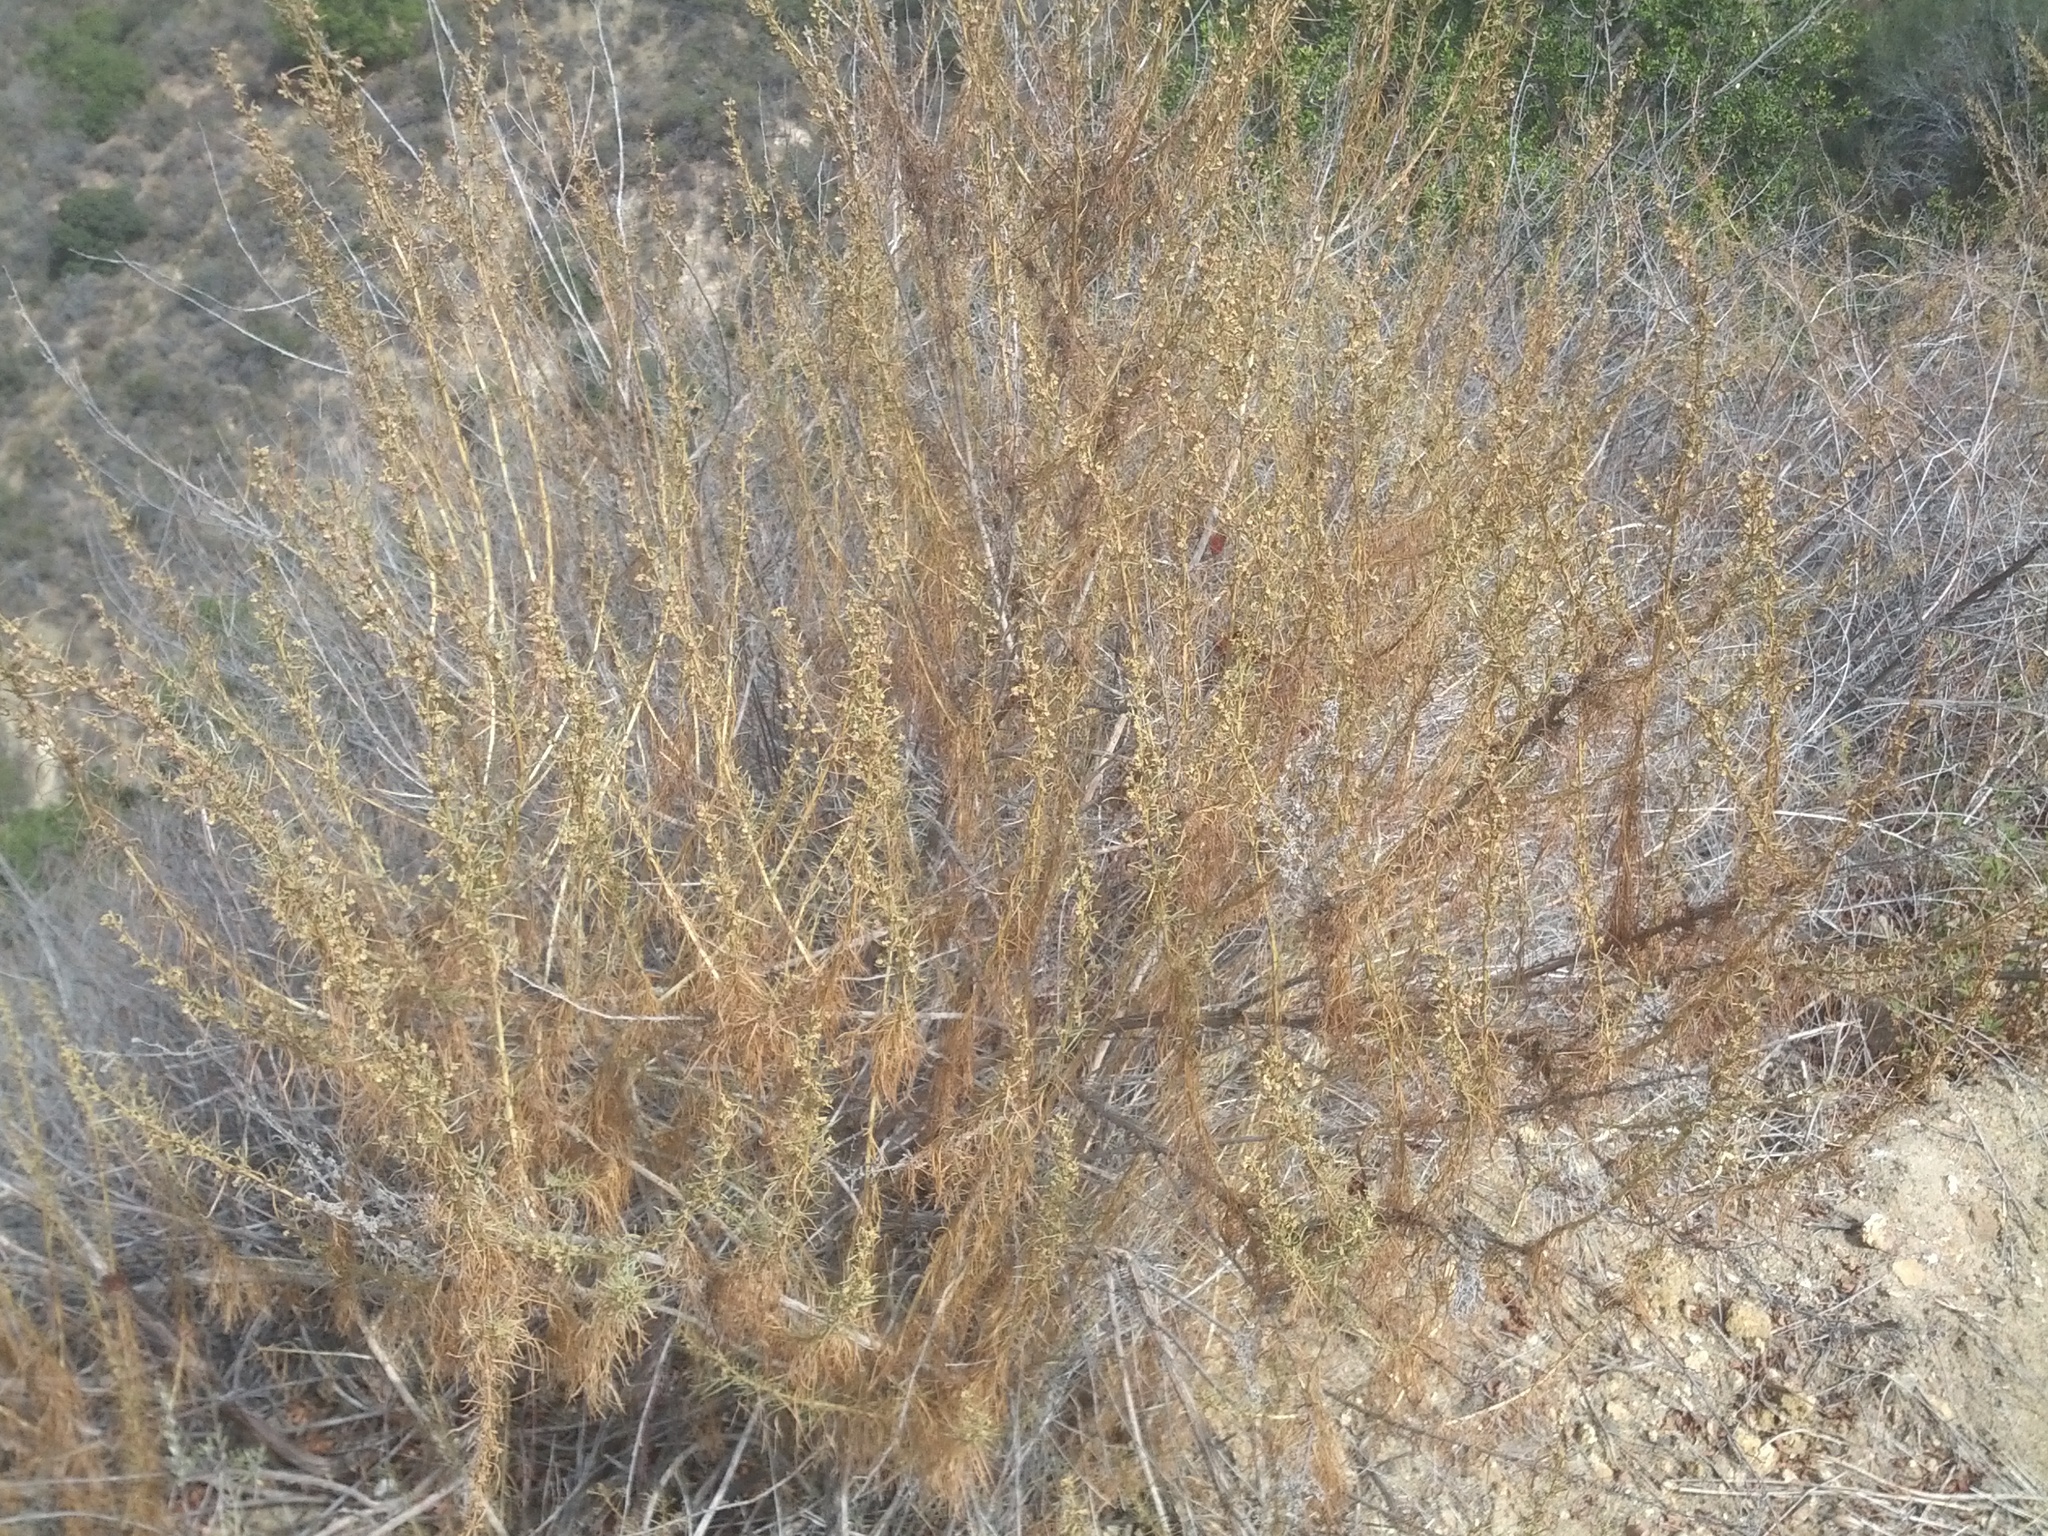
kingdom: Plantae
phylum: Tracheophyta
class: Magnoliopsida
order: Asterales
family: Asteraceae
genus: Artemisia
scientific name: Artemisia californica
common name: California sagebrush
